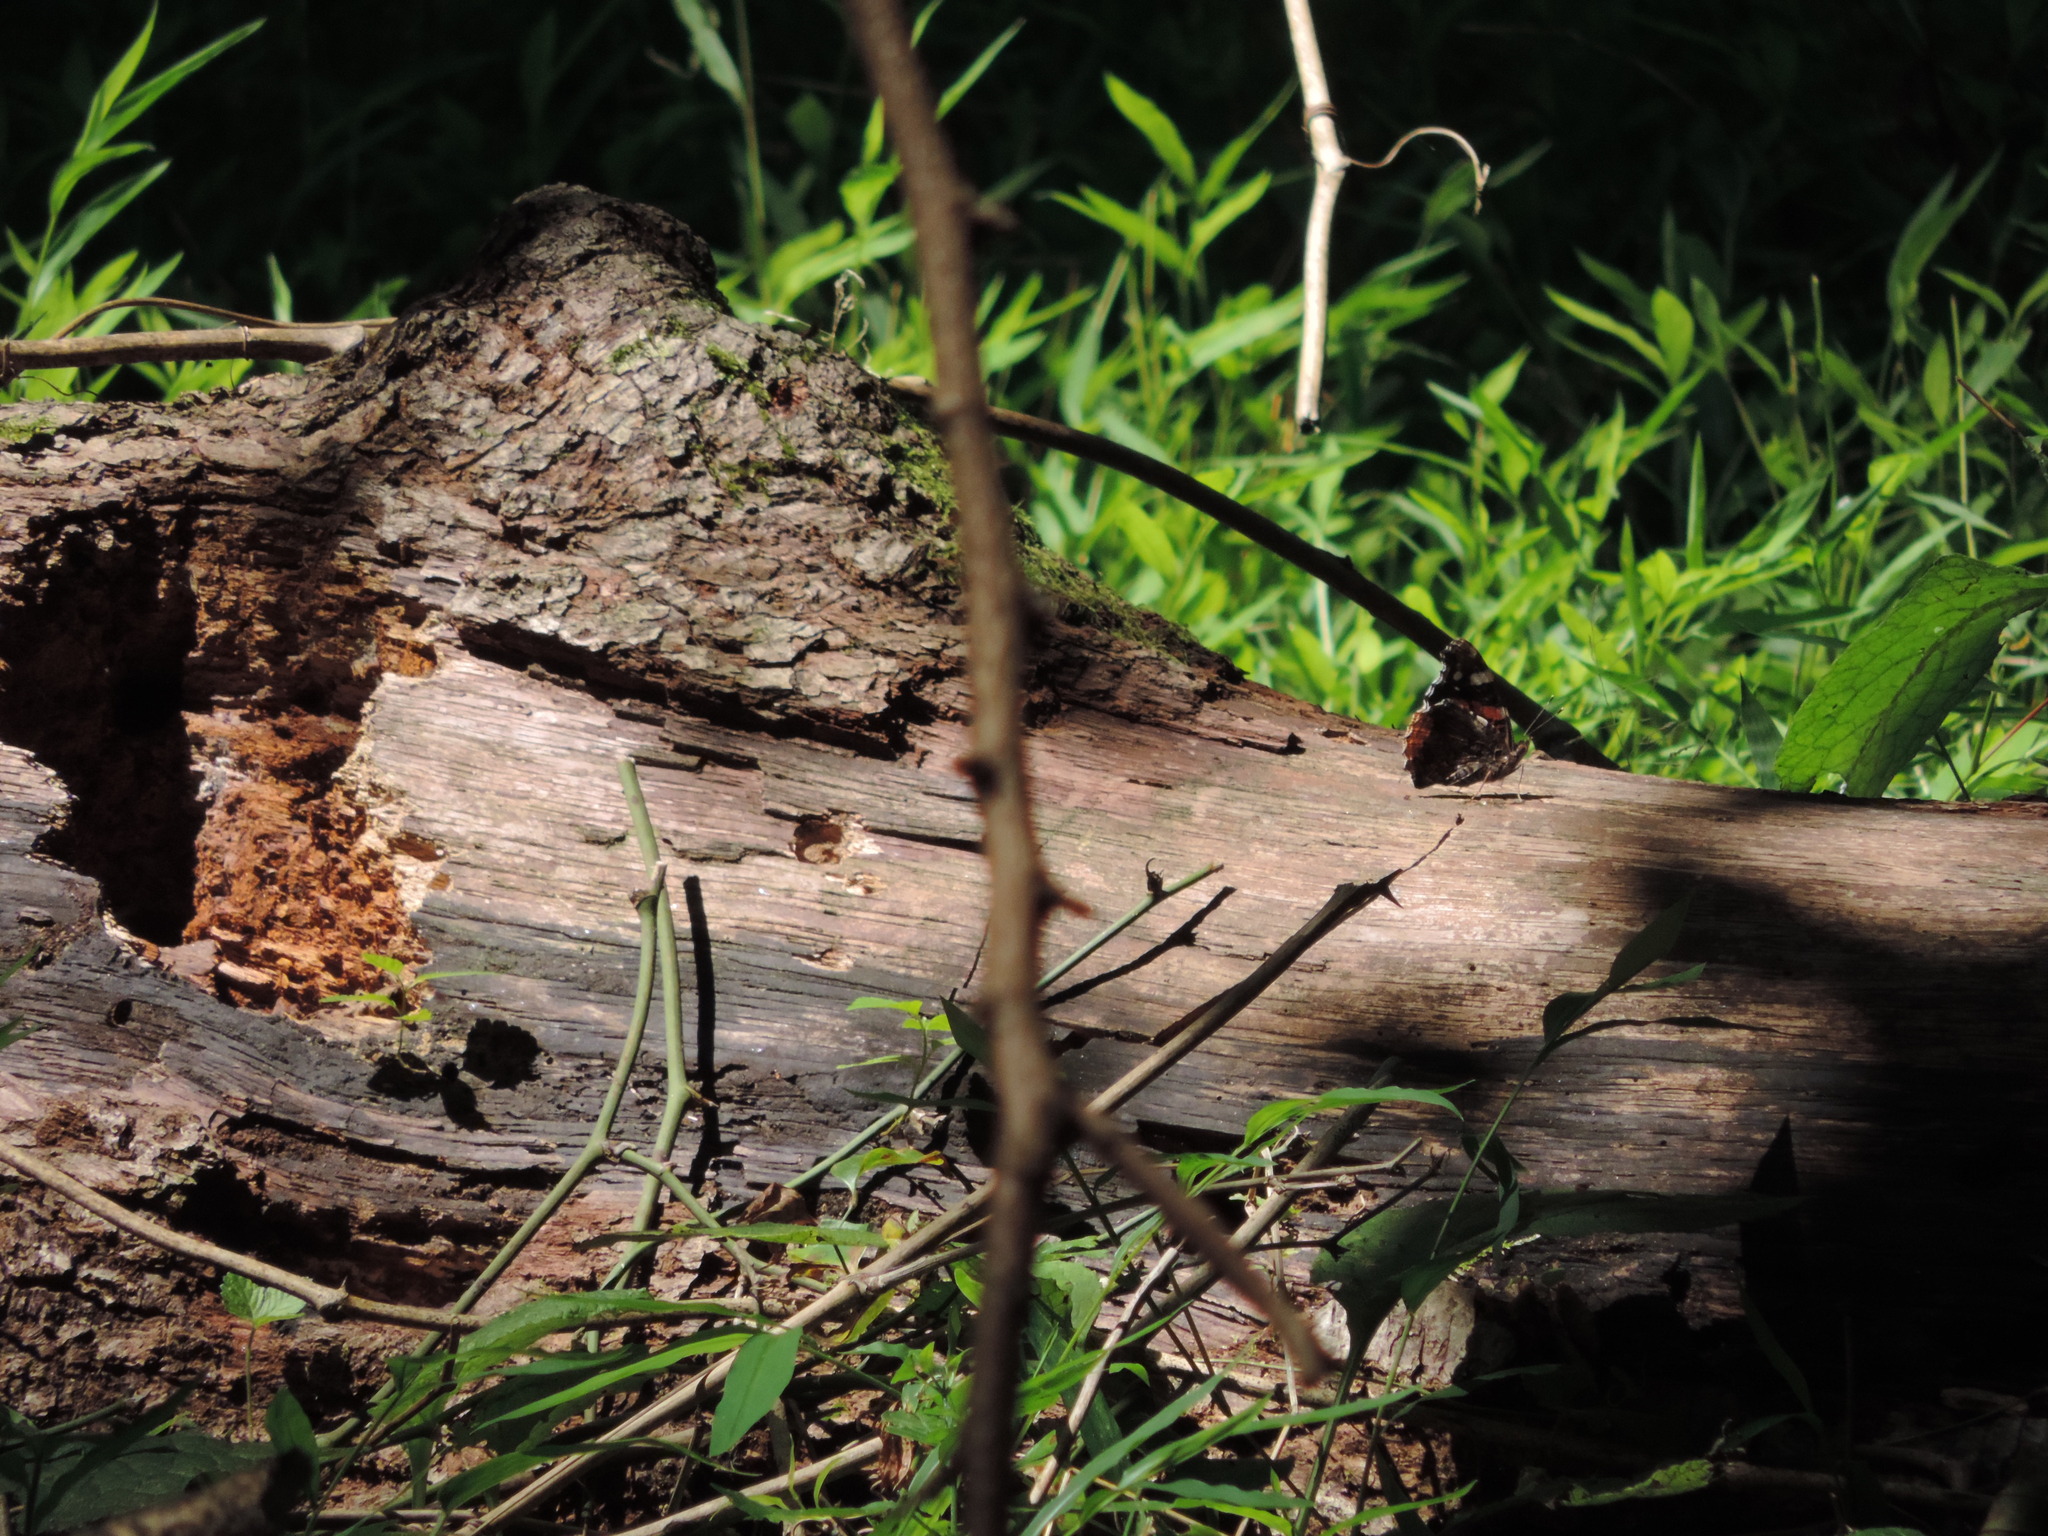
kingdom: Animalia
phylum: Arthropoda
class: Insecta
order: Lepidoptera
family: Nymphalidae
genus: Vanessa
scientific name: Vanessa atalanta
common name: Red admiral
